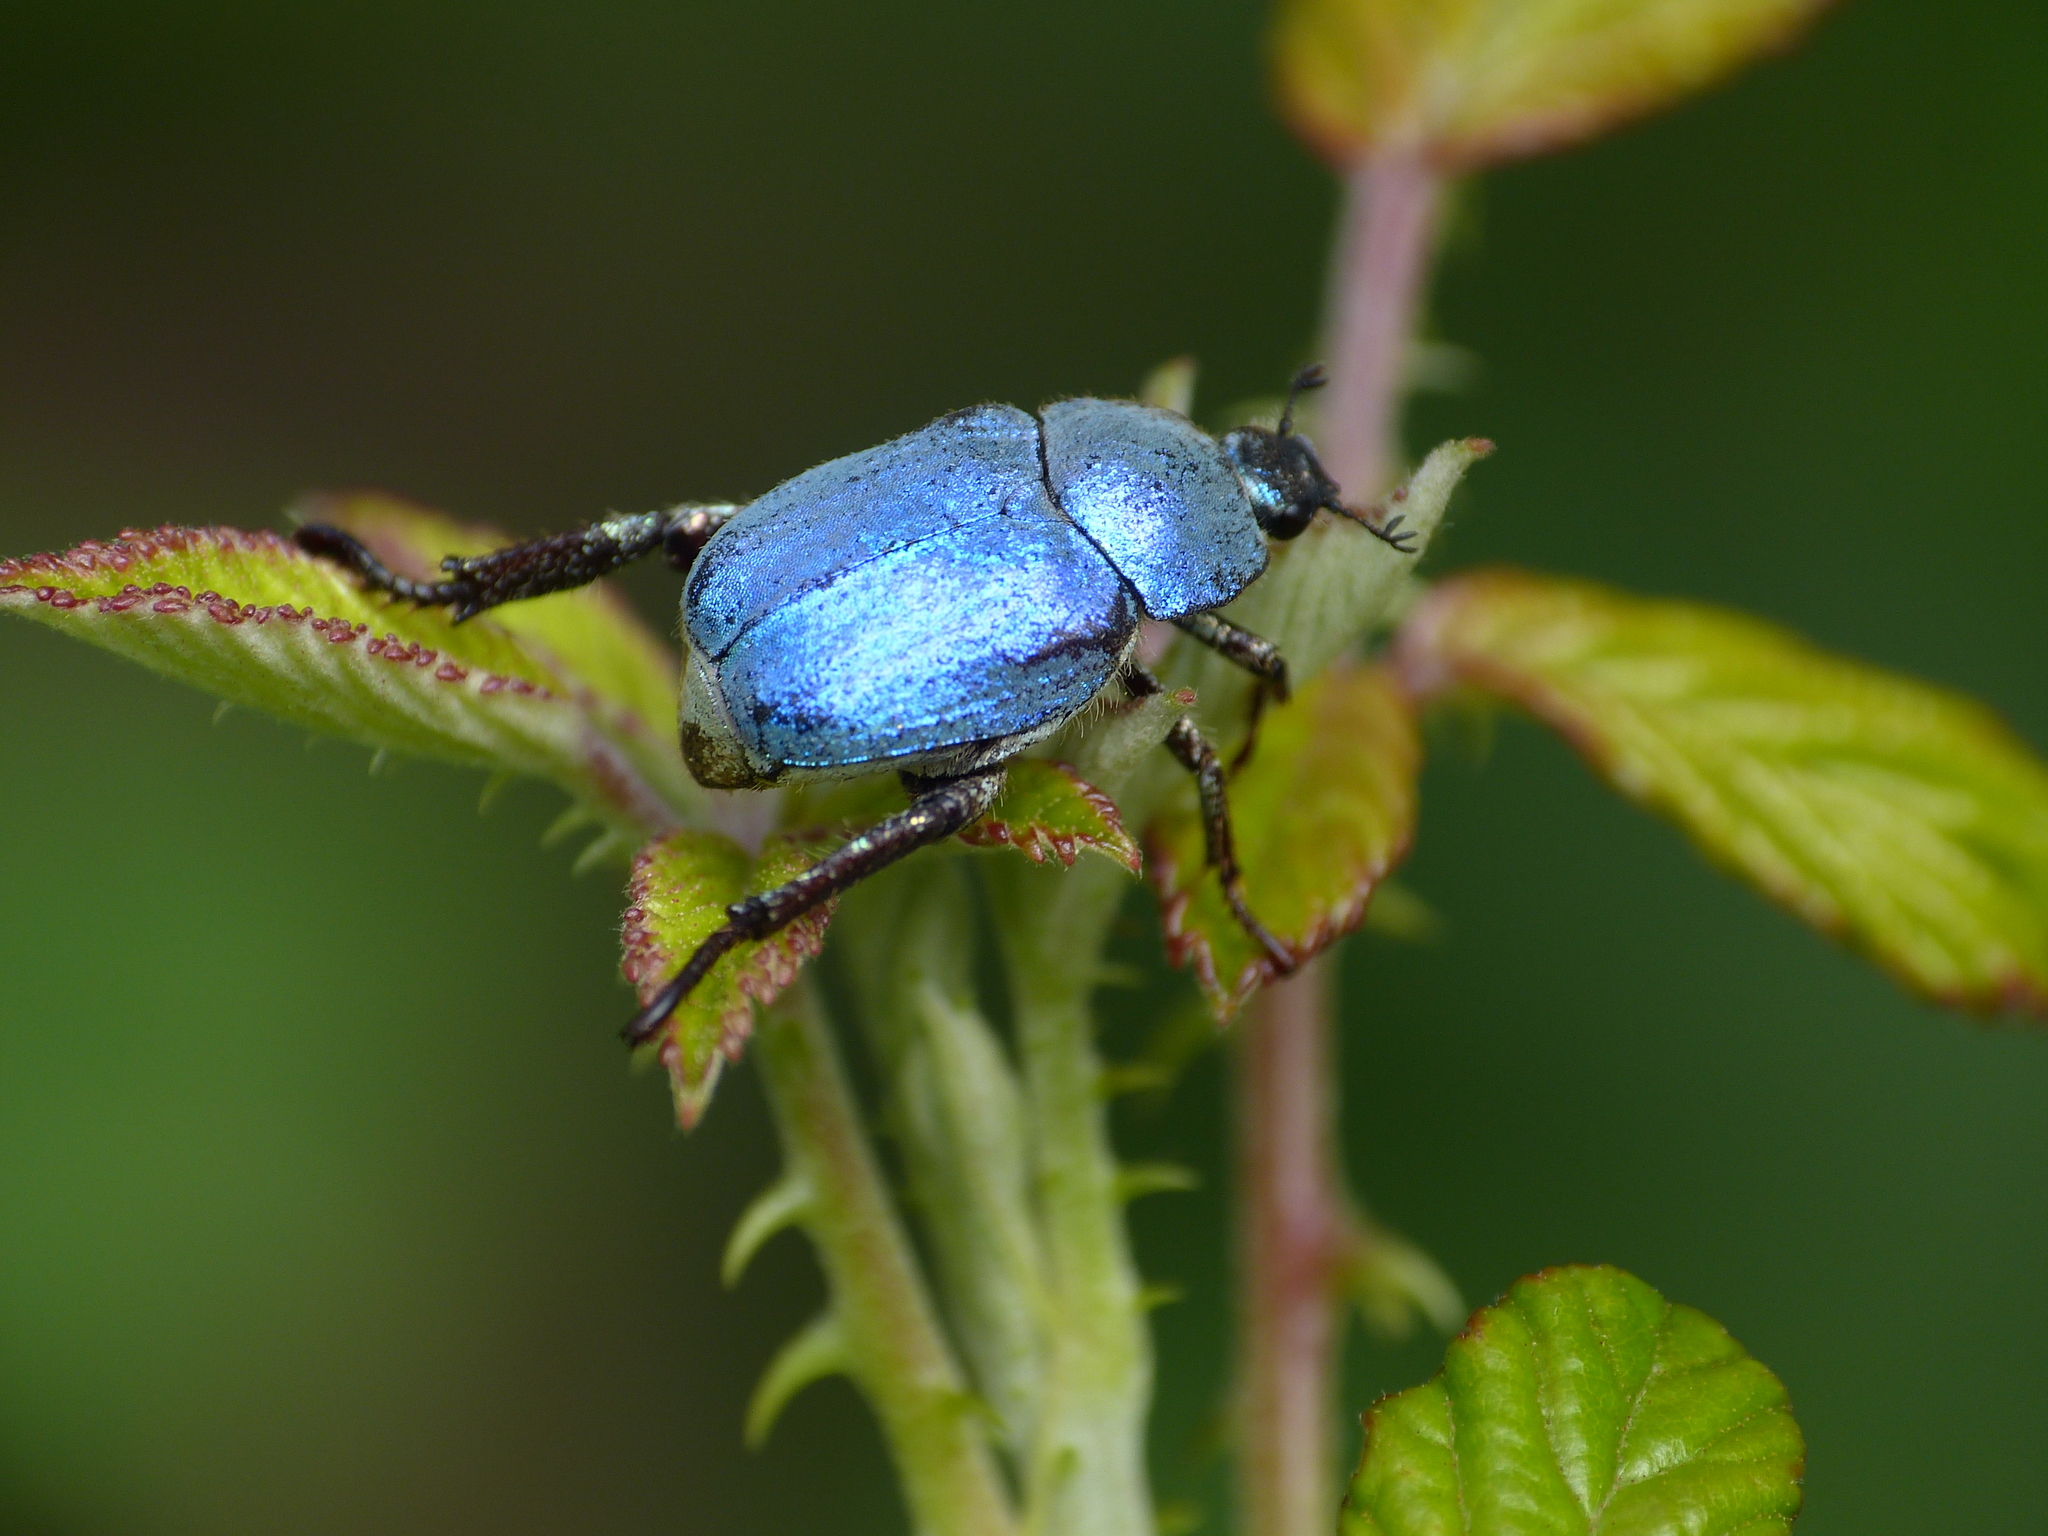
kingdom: Animalia
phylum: Arthropoda
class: Insecta
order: Coleoptera
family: Scarabaeidae
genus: Hoplia
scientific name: Hoplia coerulea
